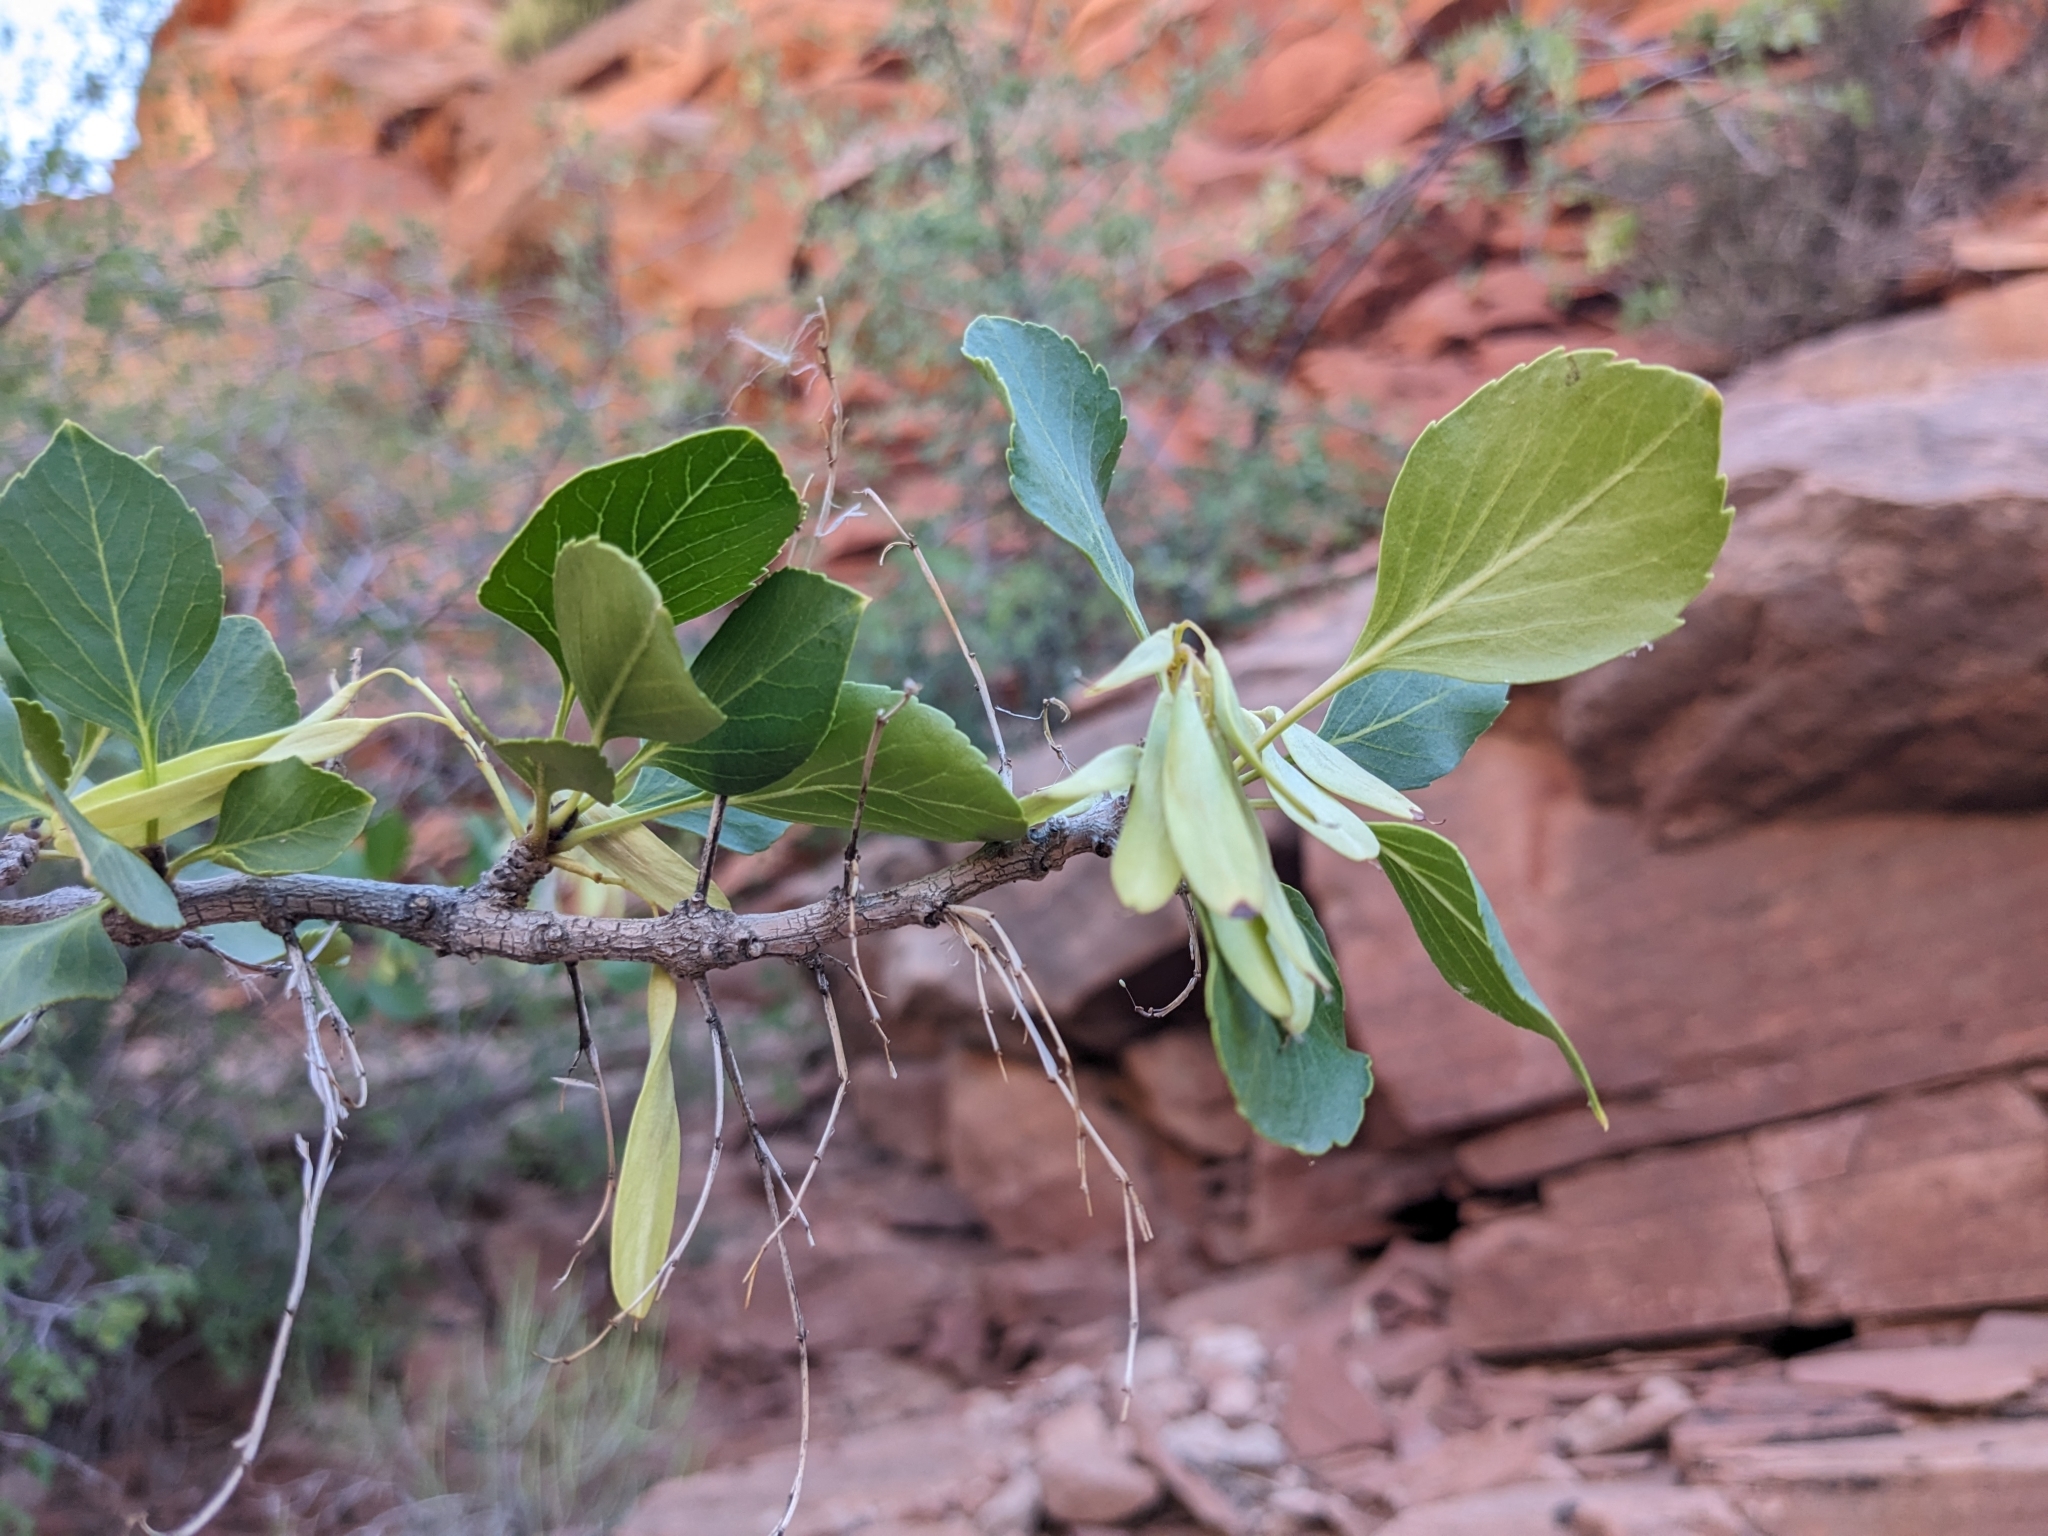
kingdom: Plantae
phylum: Tracheophyta
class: Magnoliopsida
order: Lamiales
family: Oleaceae
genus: Fraxinus
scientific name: Fraxinus anomala
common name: Utah ash
